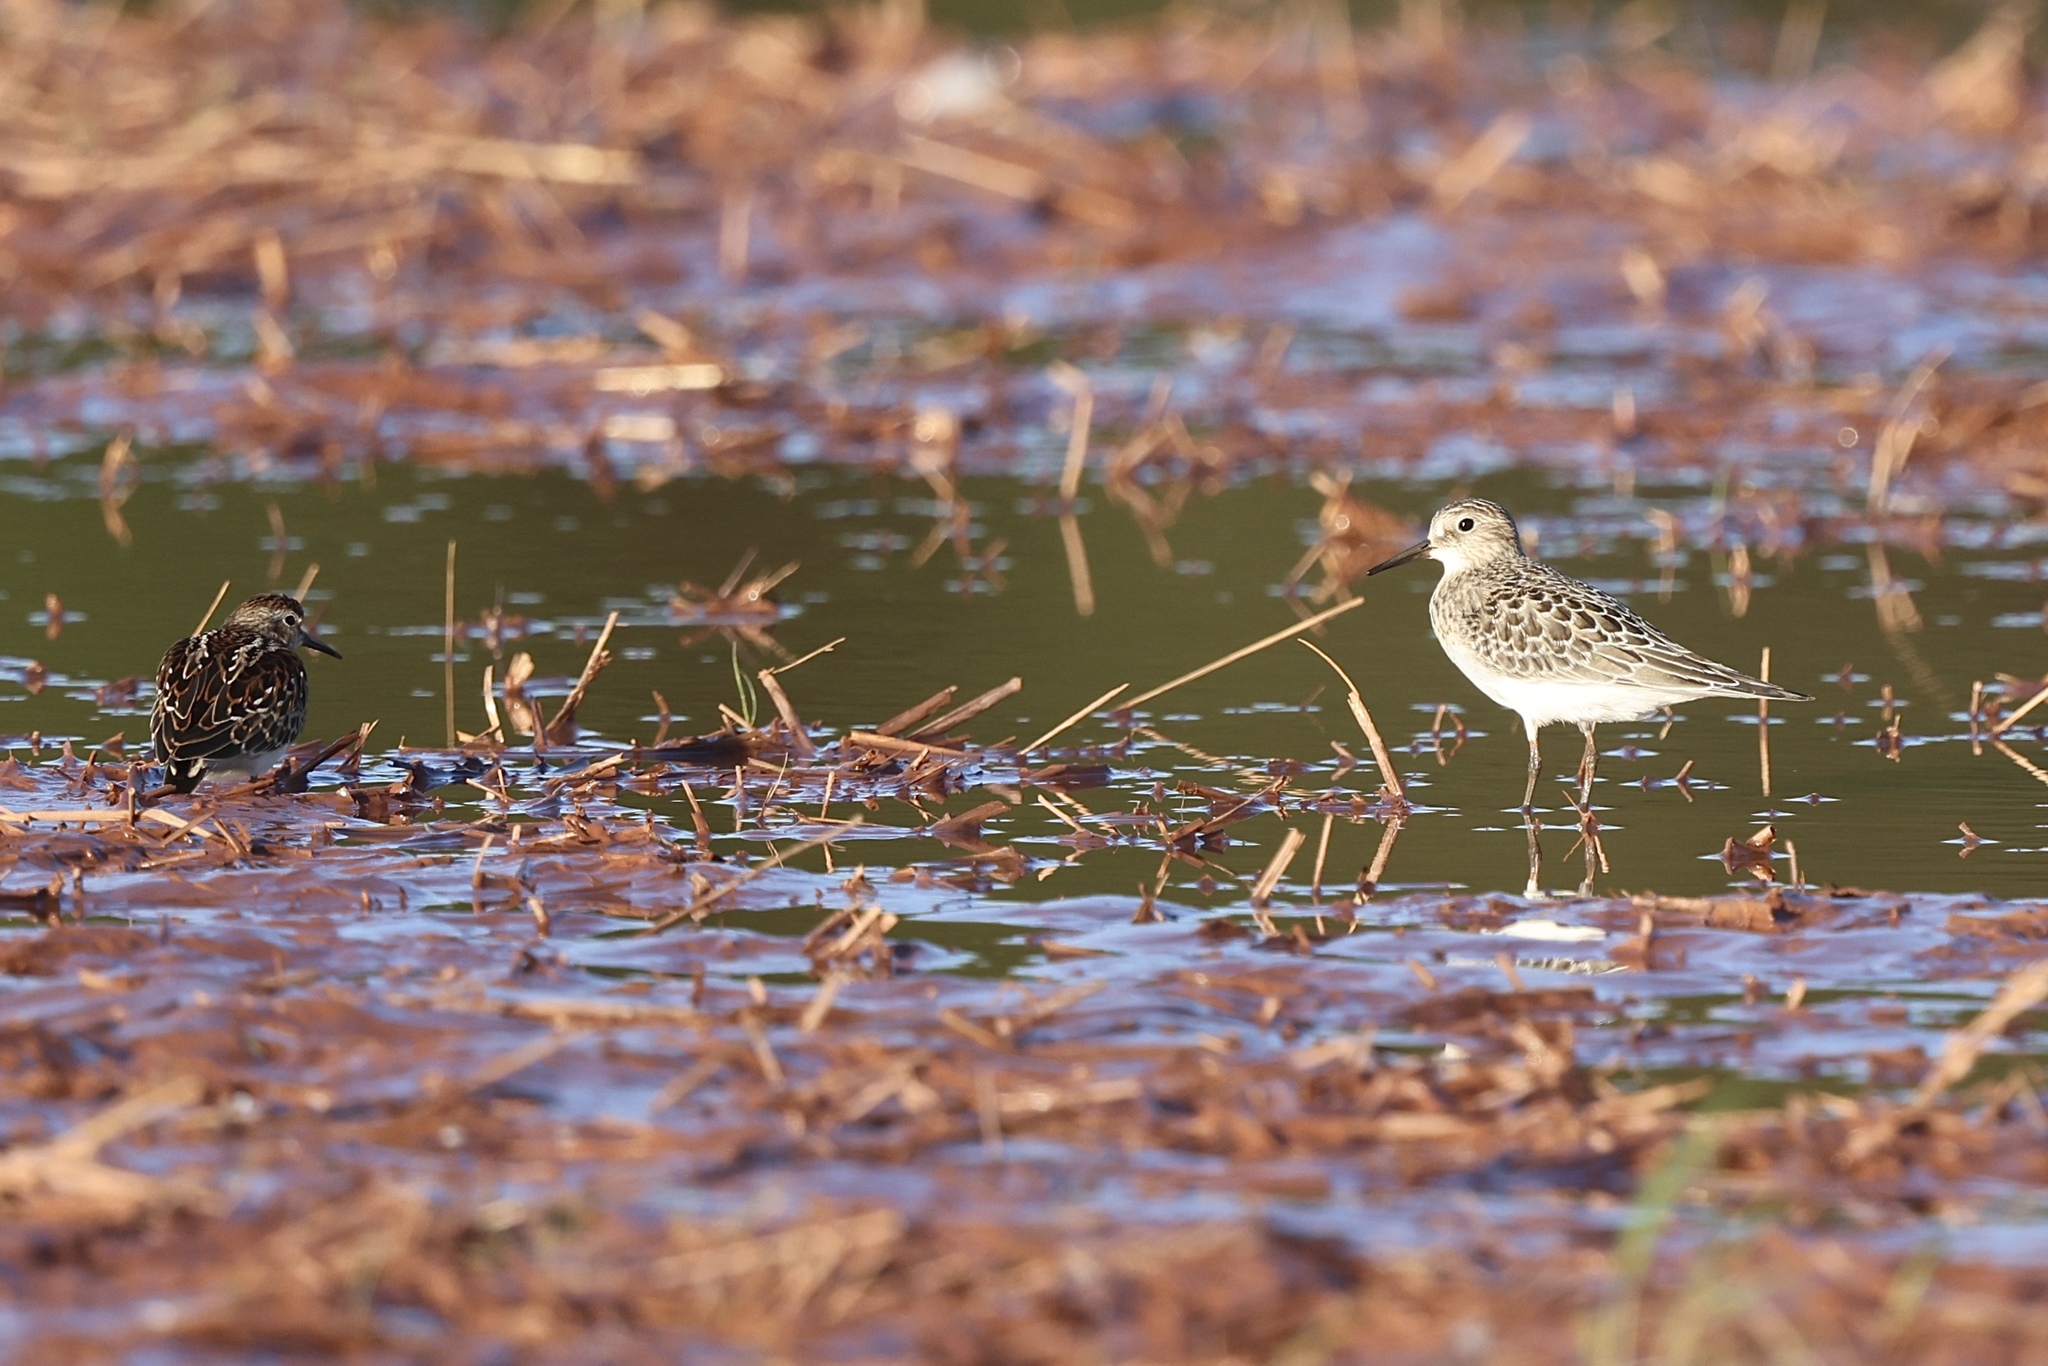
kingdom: Animalia
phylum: Chordata
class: Aves
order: Charadriiformes
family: Scolopacidae
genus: Calidris
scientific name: Calidris bairdii
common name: Baird's sandpiper
